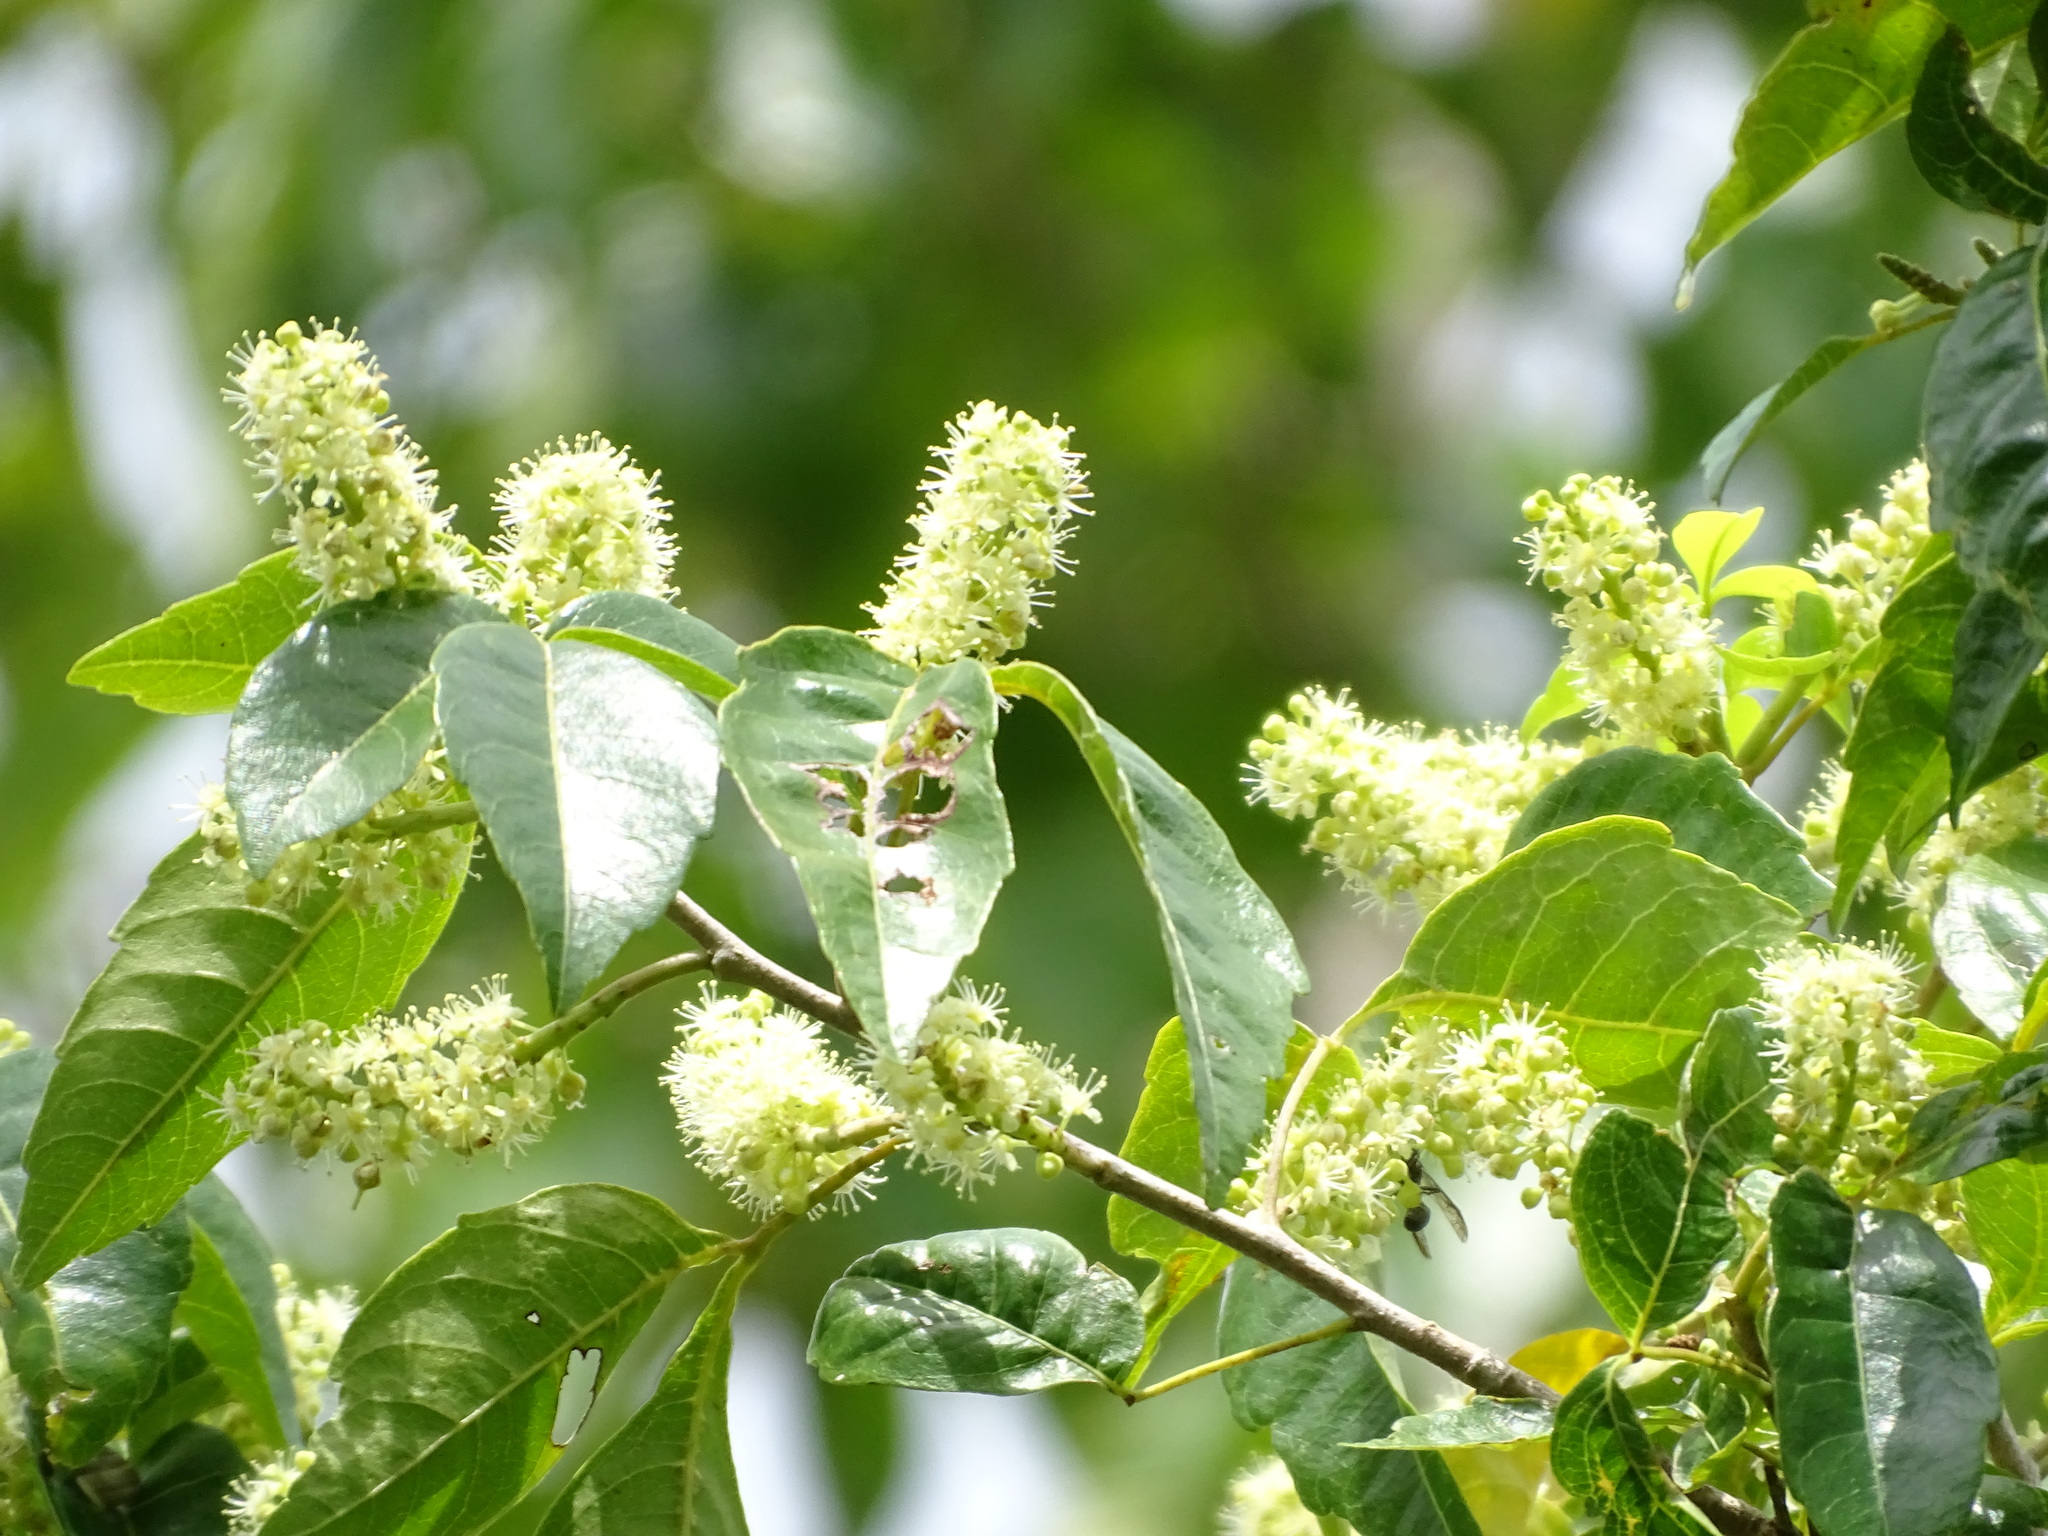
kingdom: Plantae
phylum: Tracheophyta
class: Magnoliopsida
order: Sapindales
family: Sapindaceae
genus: Thouinia
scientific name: Thouinia paucidentata
